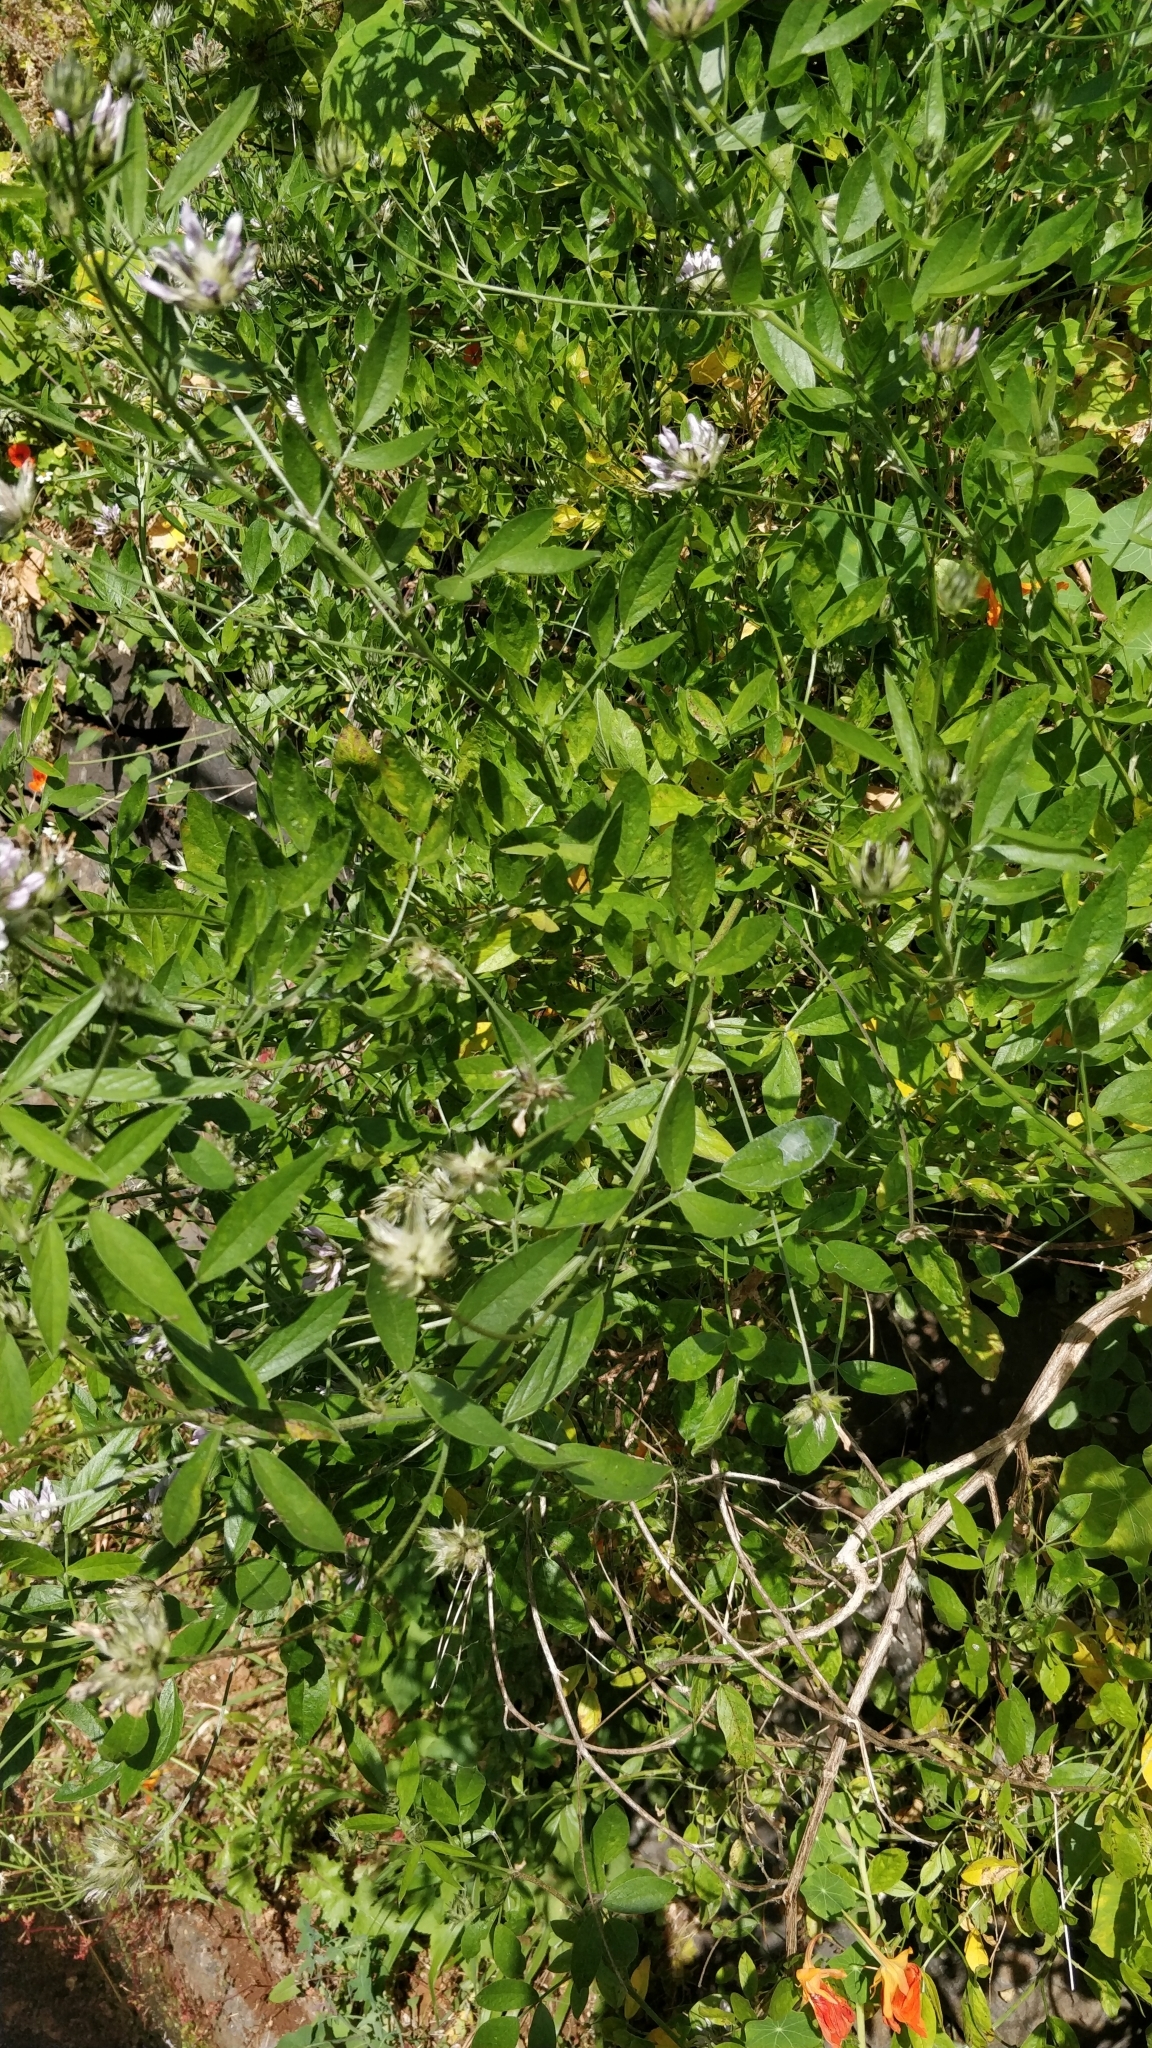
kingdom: Plantae
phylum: Tracheophyta
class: Magnoliopsida
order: Fabales
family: Fabaceae
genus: Bituminaria
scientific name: Bituminaria bituminosa
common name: Arabian pea
